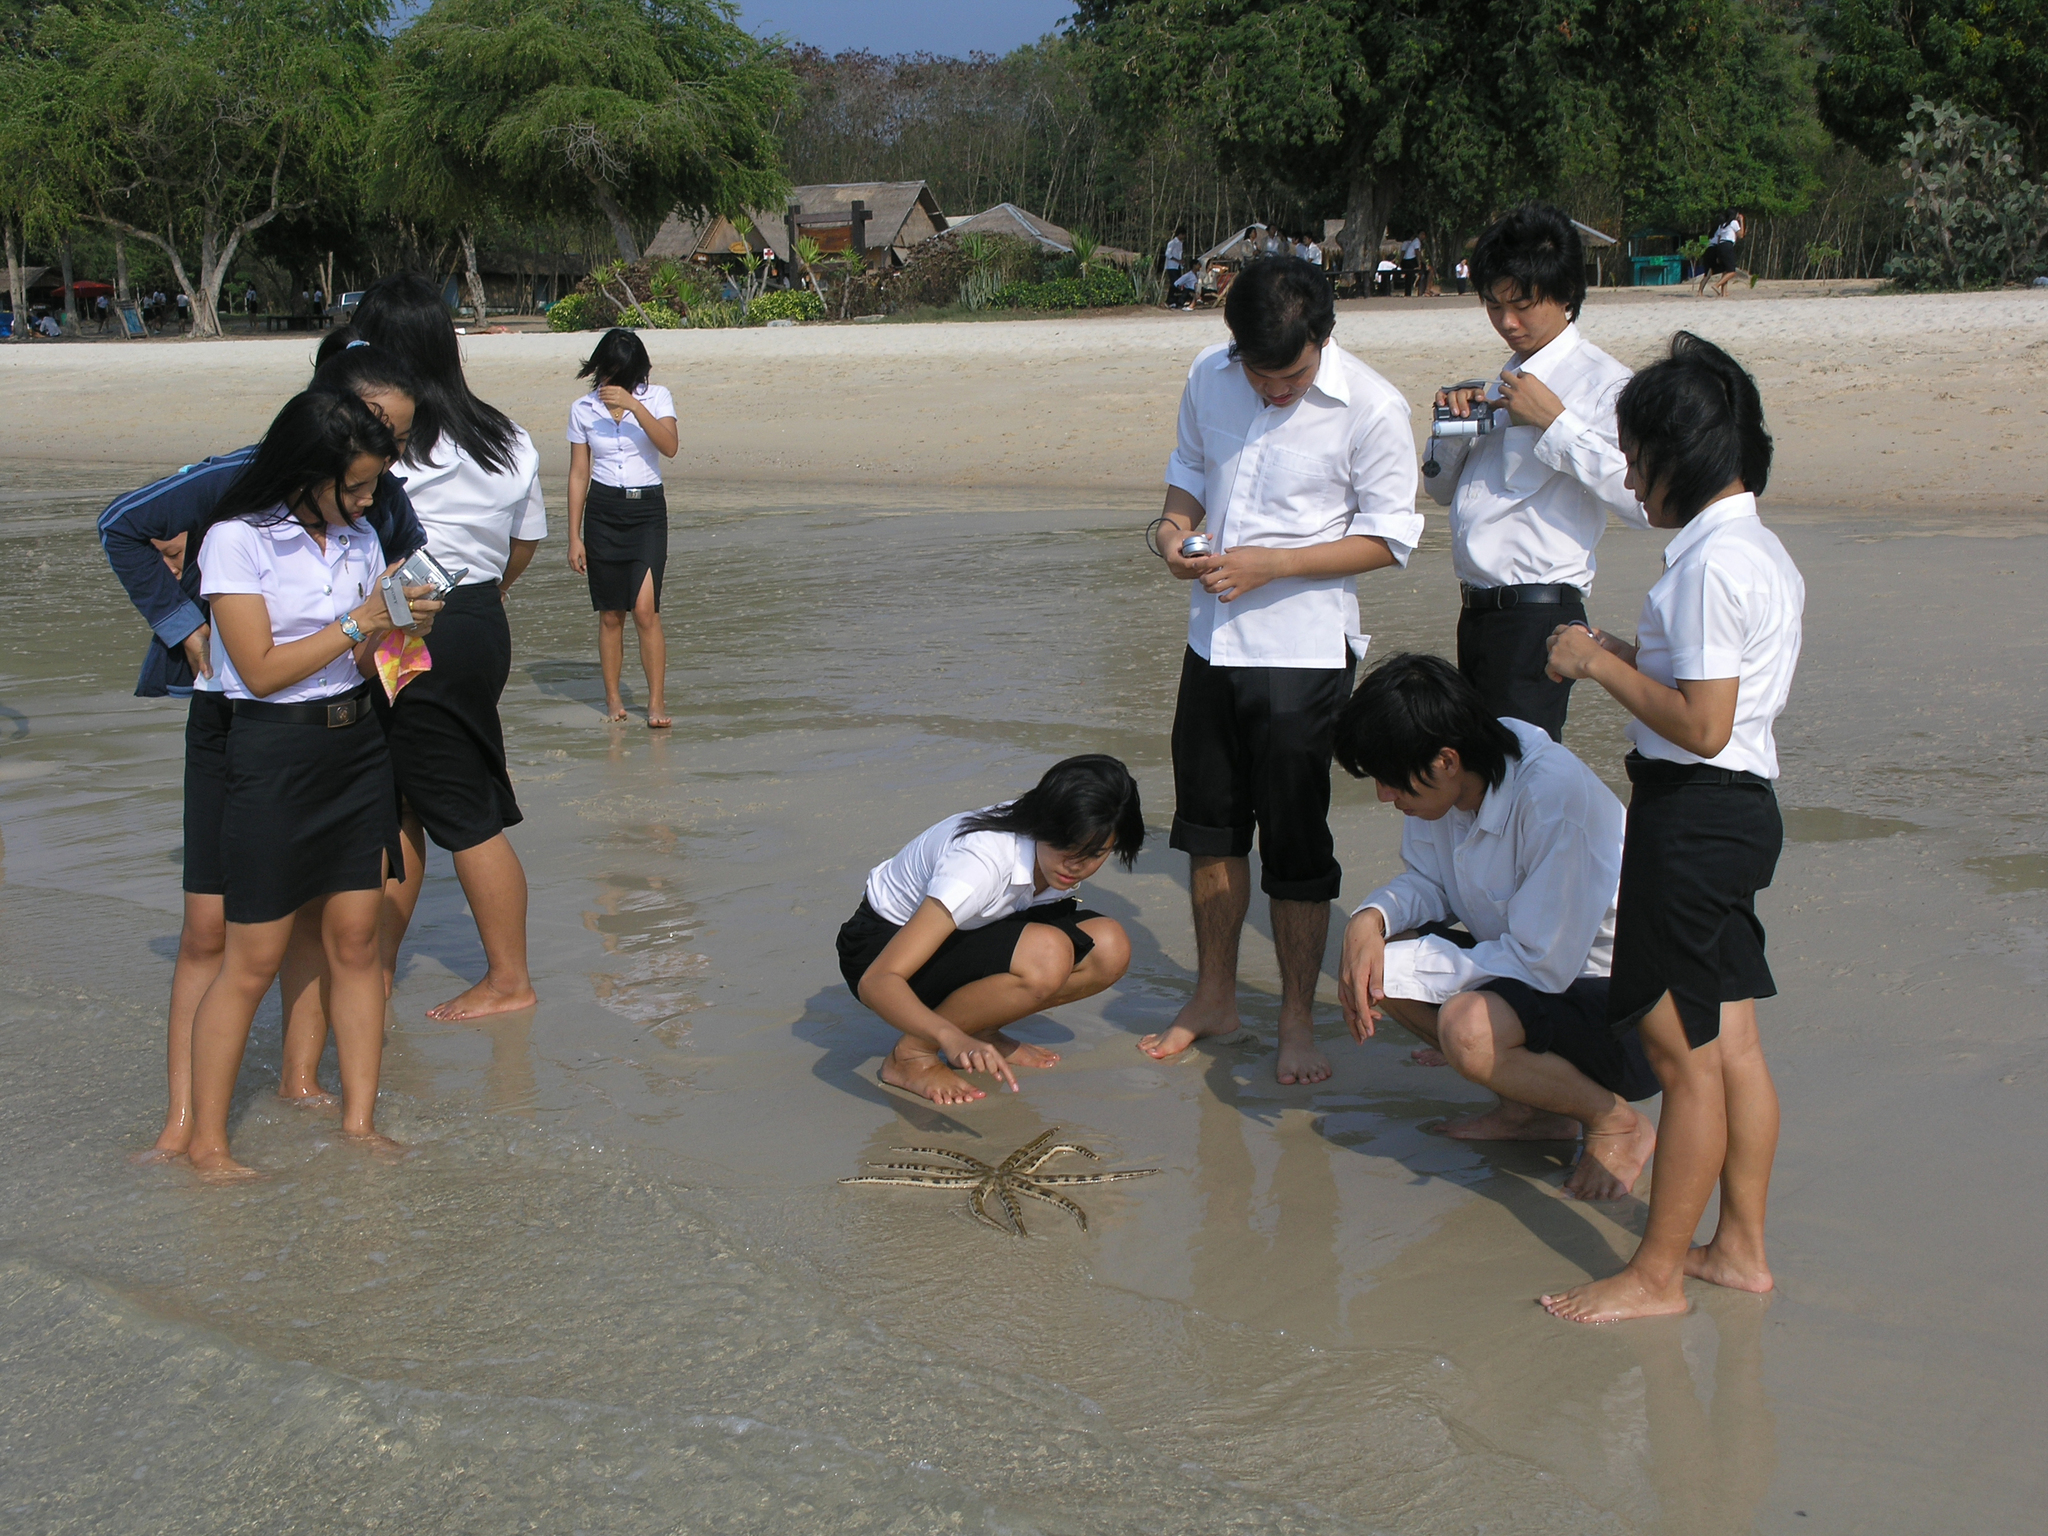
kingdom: Animalia
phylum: Echinodermata
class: Asteroidea
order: Paxillosida
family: Luidiidae
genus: Luidia
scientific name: Luidia maculata
